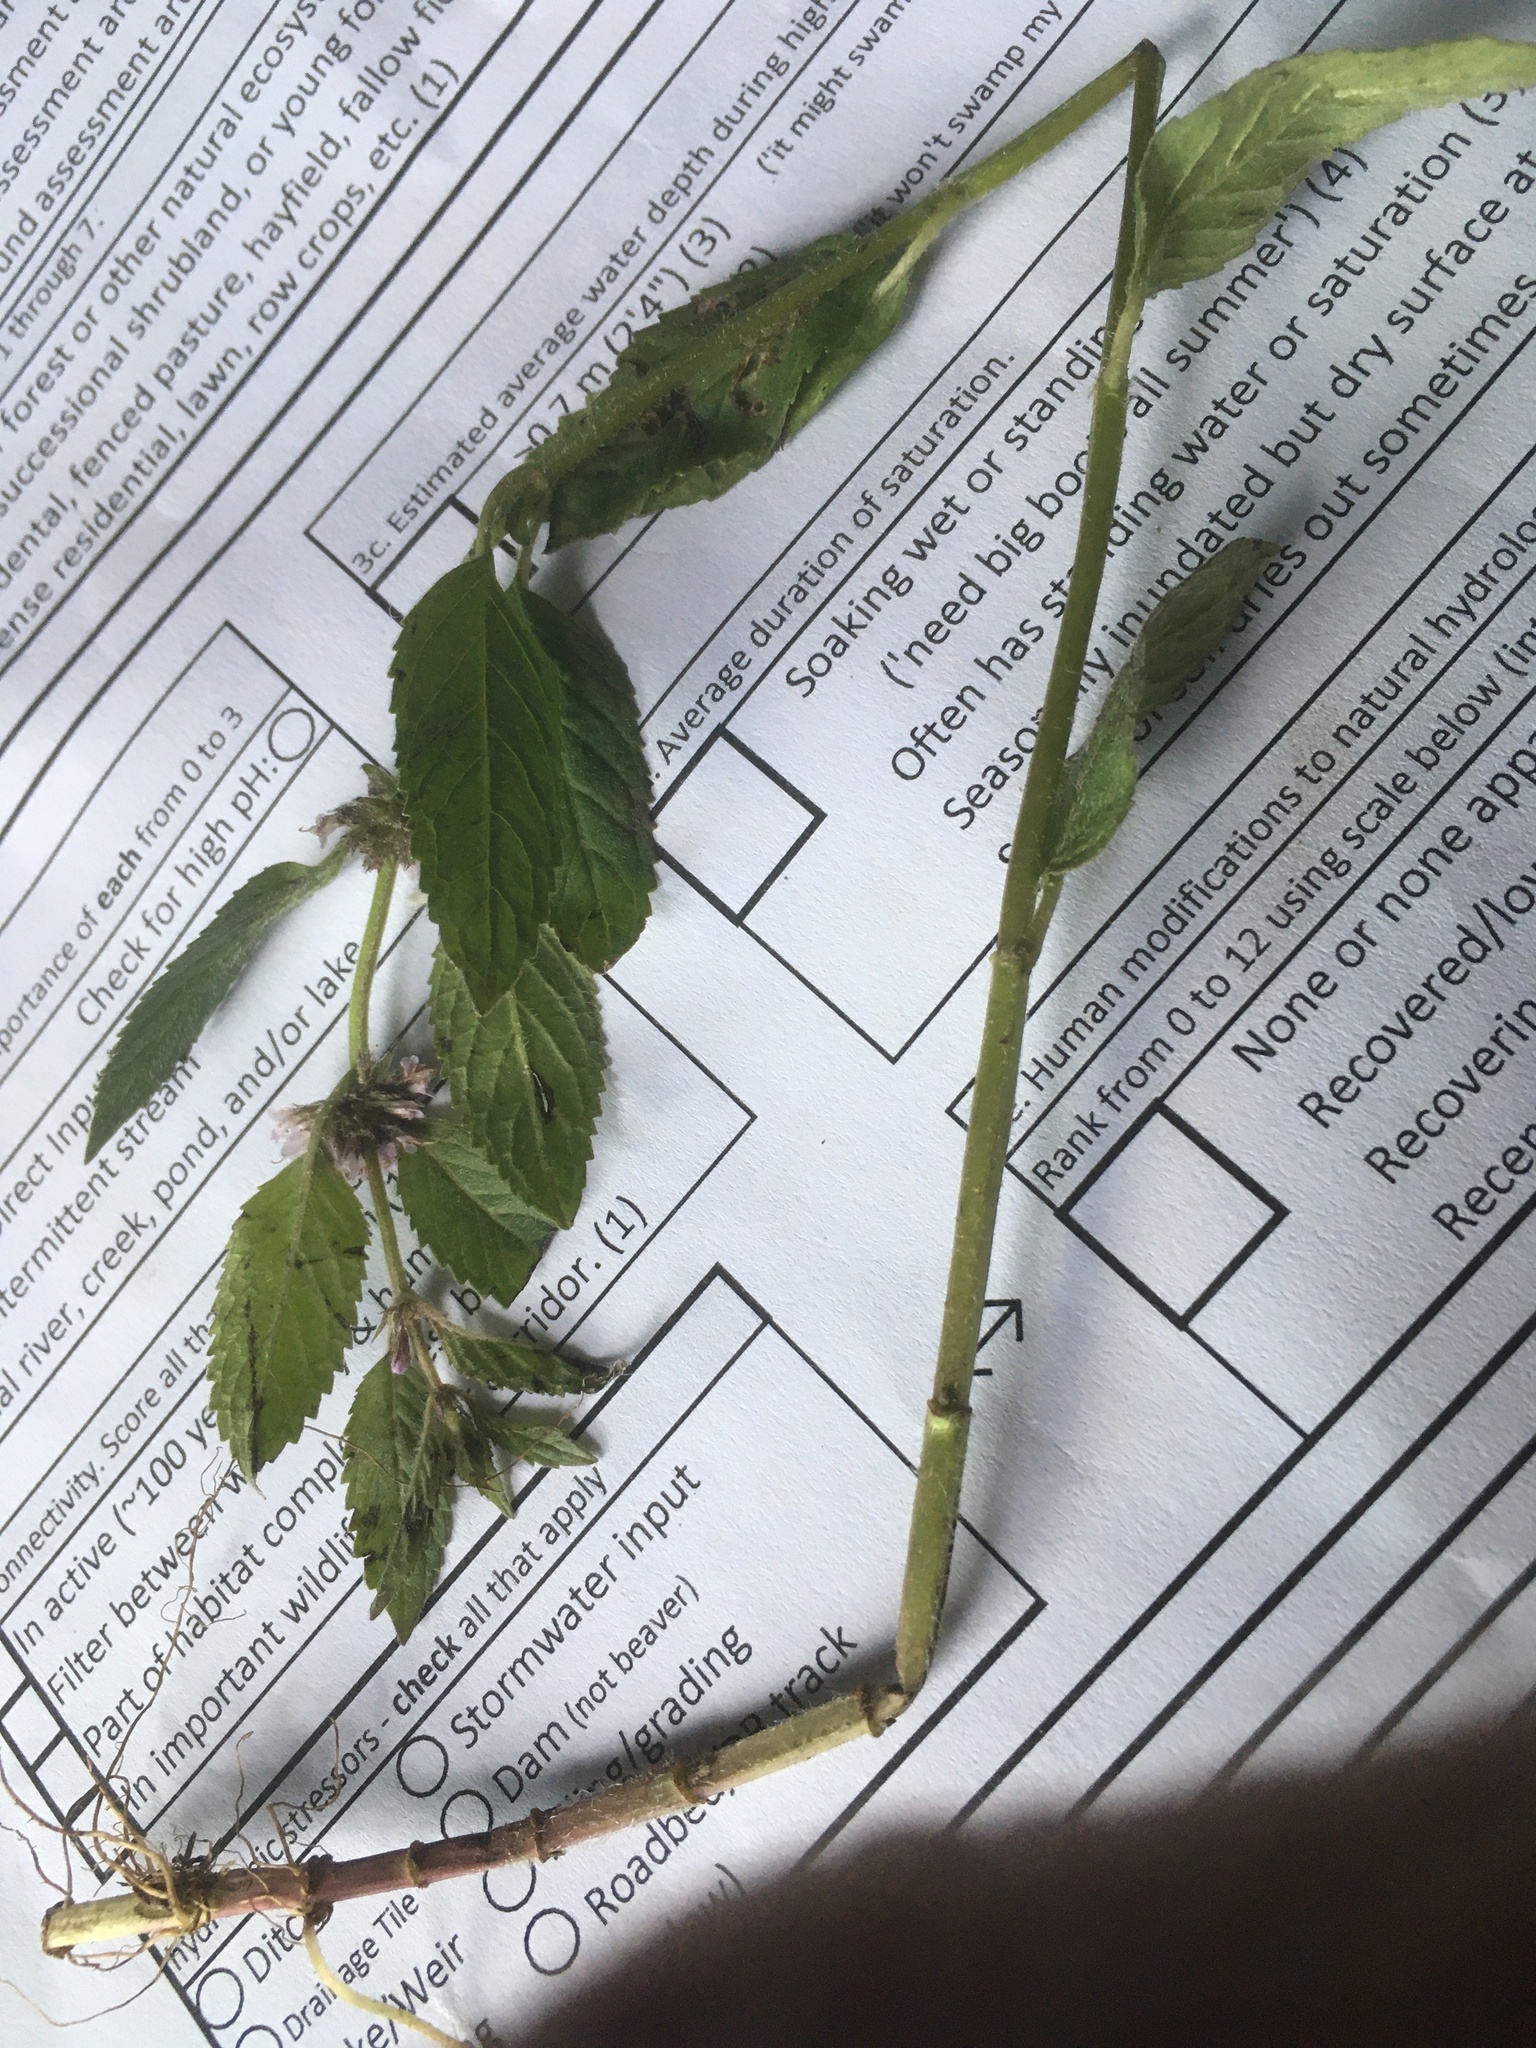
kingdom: Plantae
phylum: Tracheophyta
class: Magnoliopsida
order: Lamiales
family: Lamiaceae
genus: Mentha
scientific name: Mentha arvensis
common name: Corn mint
